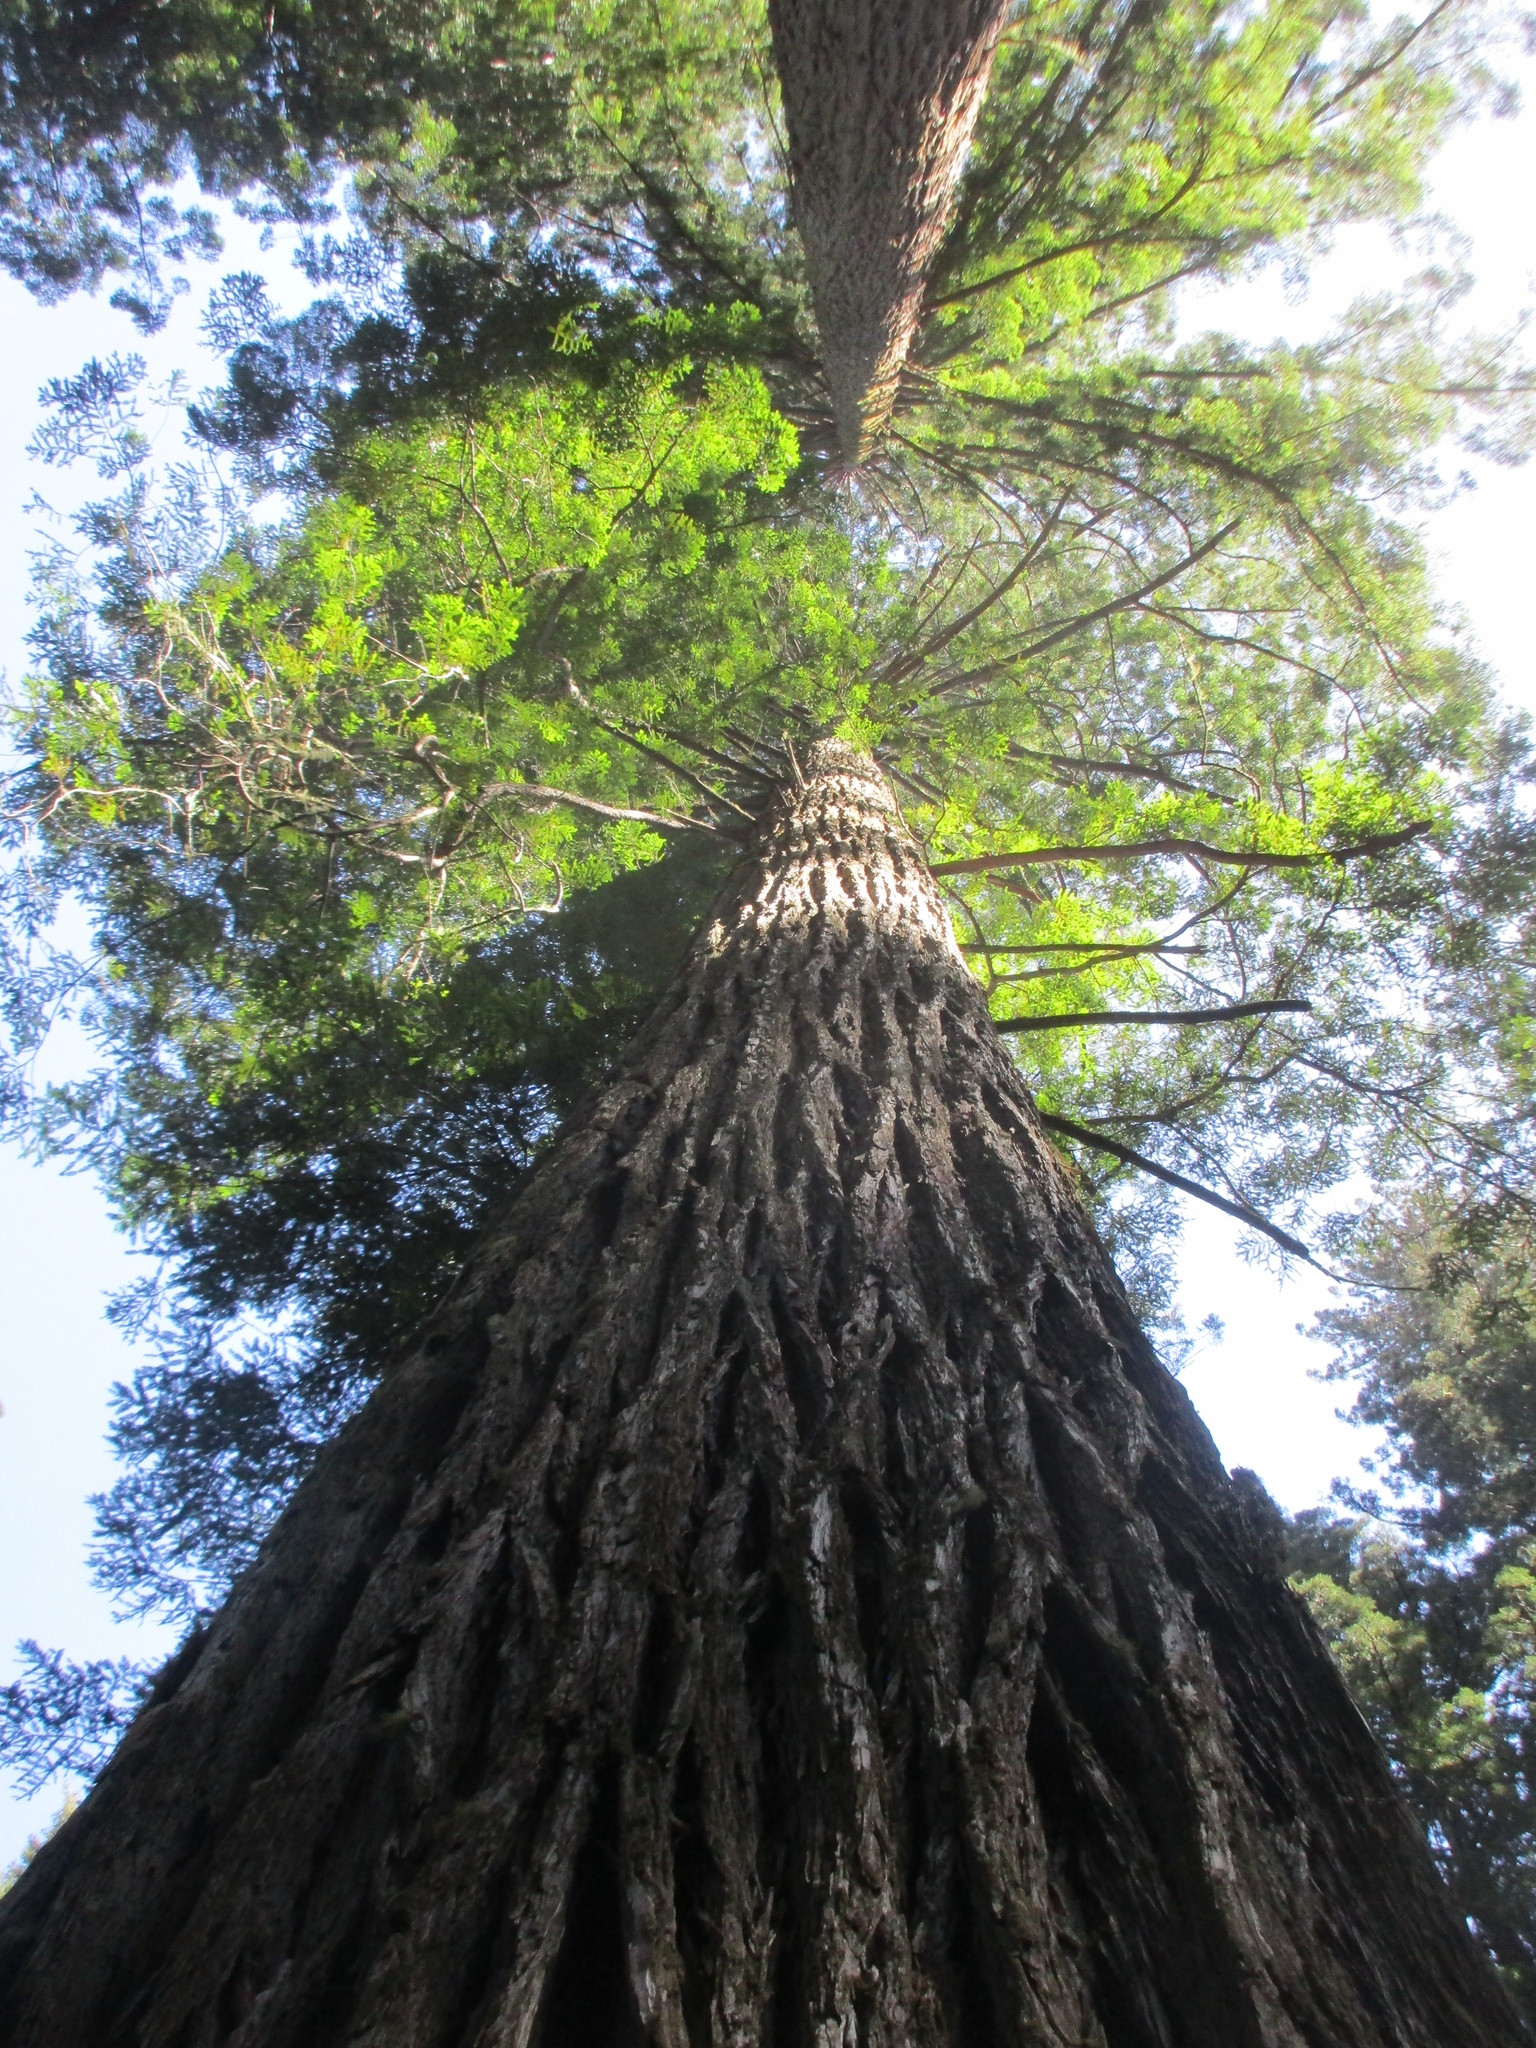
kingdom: Plantae
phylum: Tracheophyta
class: Pinopsida
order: Pinales
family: Cupressaceae
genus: Sequoia
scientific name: Sequoia sempervirens
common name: Coast redwood
